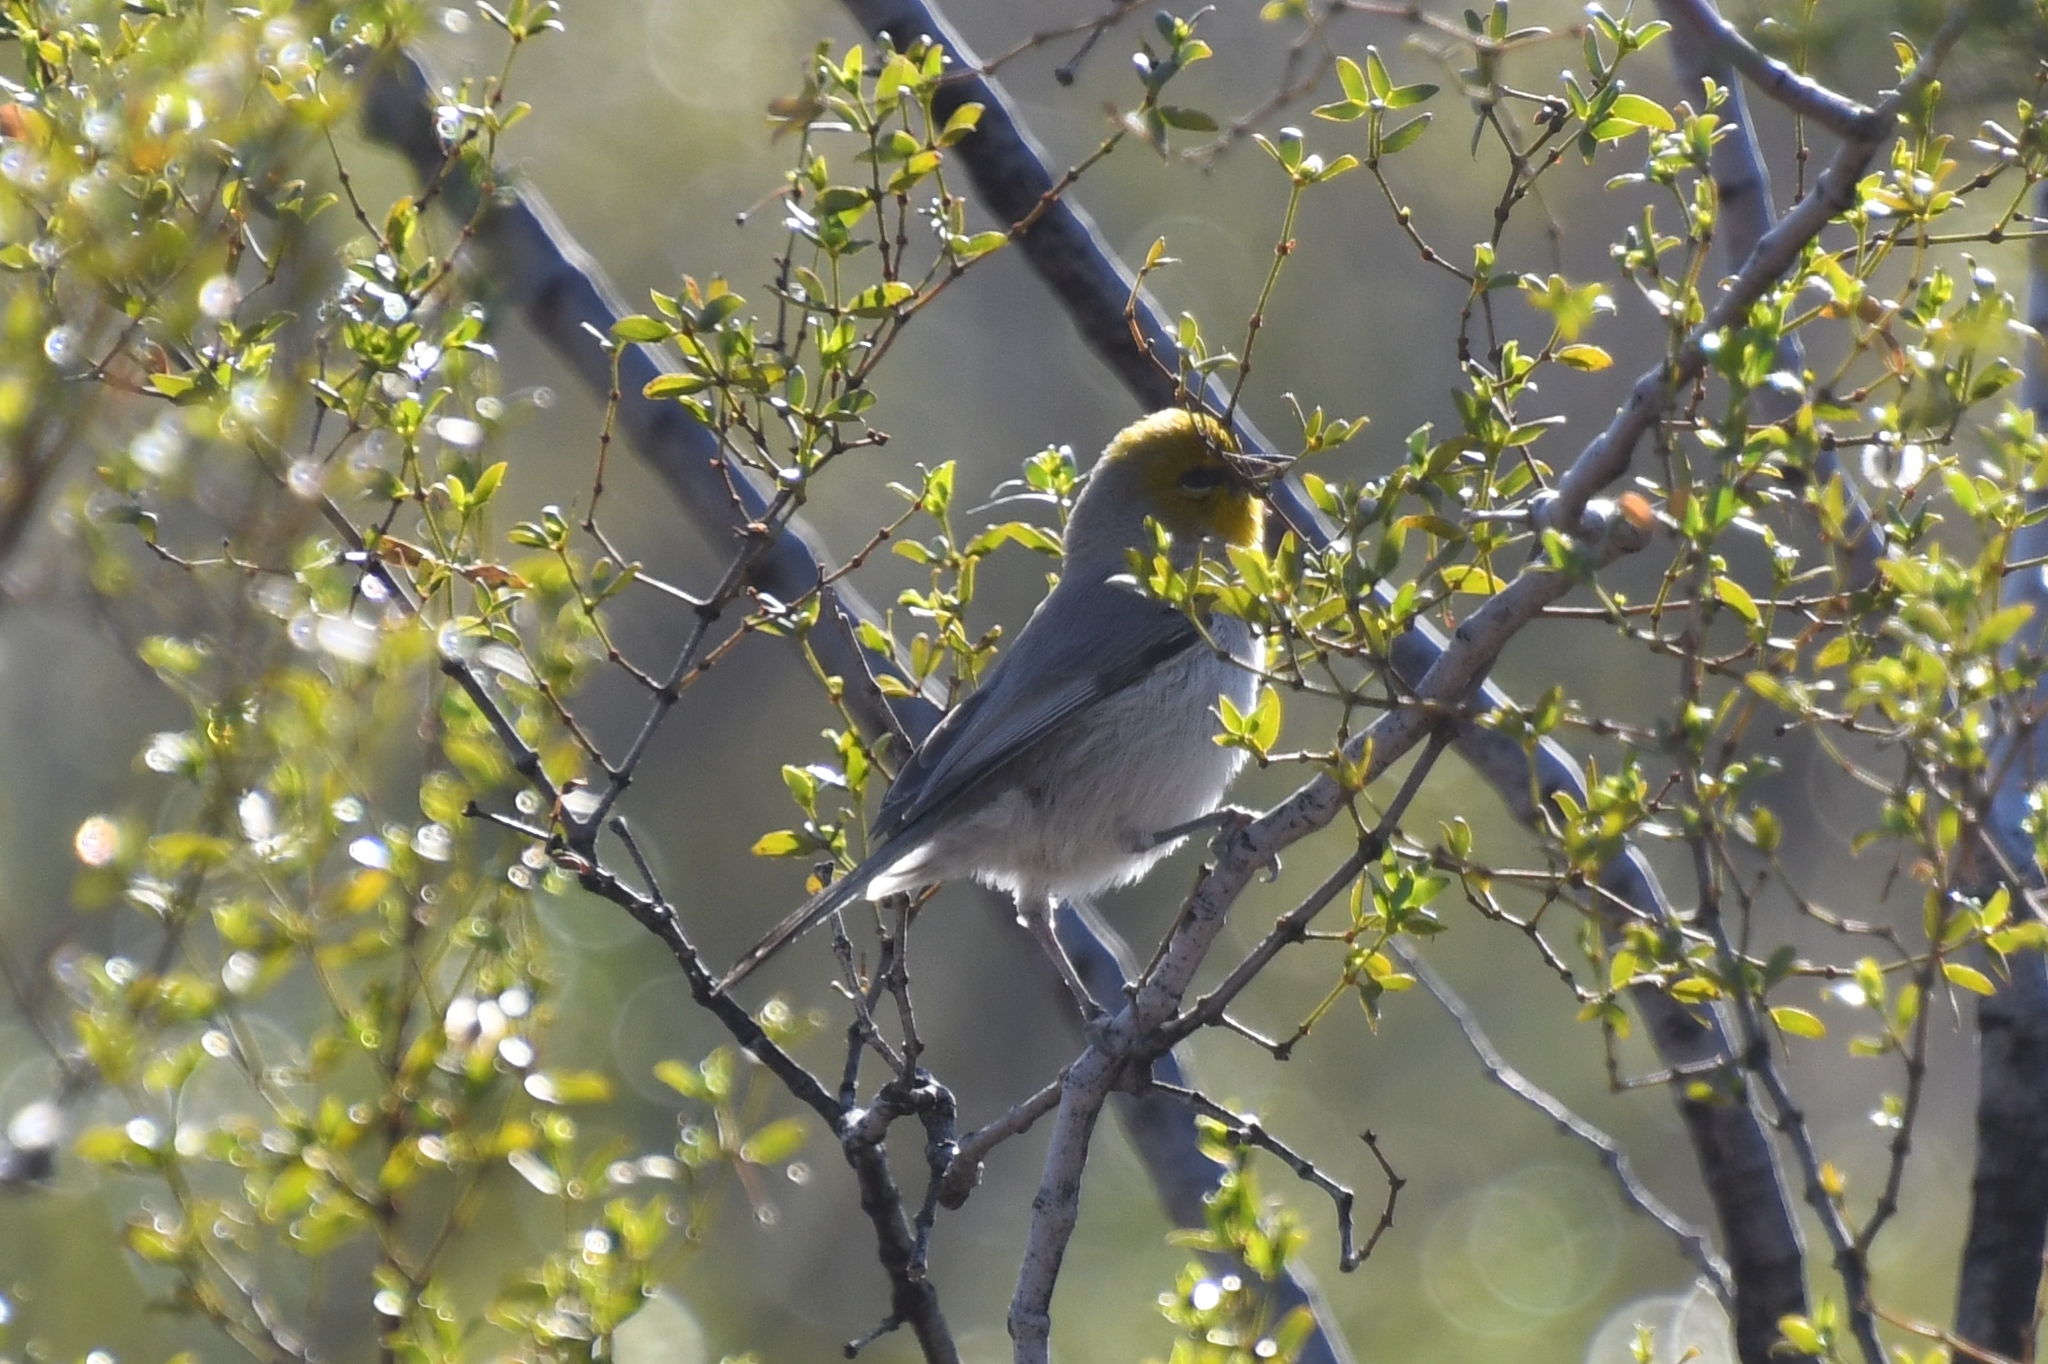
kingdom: Animalia
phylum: Chordata
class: Aves
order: Passeriformes
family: Remizidae
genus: Auriparus
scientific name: Auriparus flaviceps
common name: Verdin
